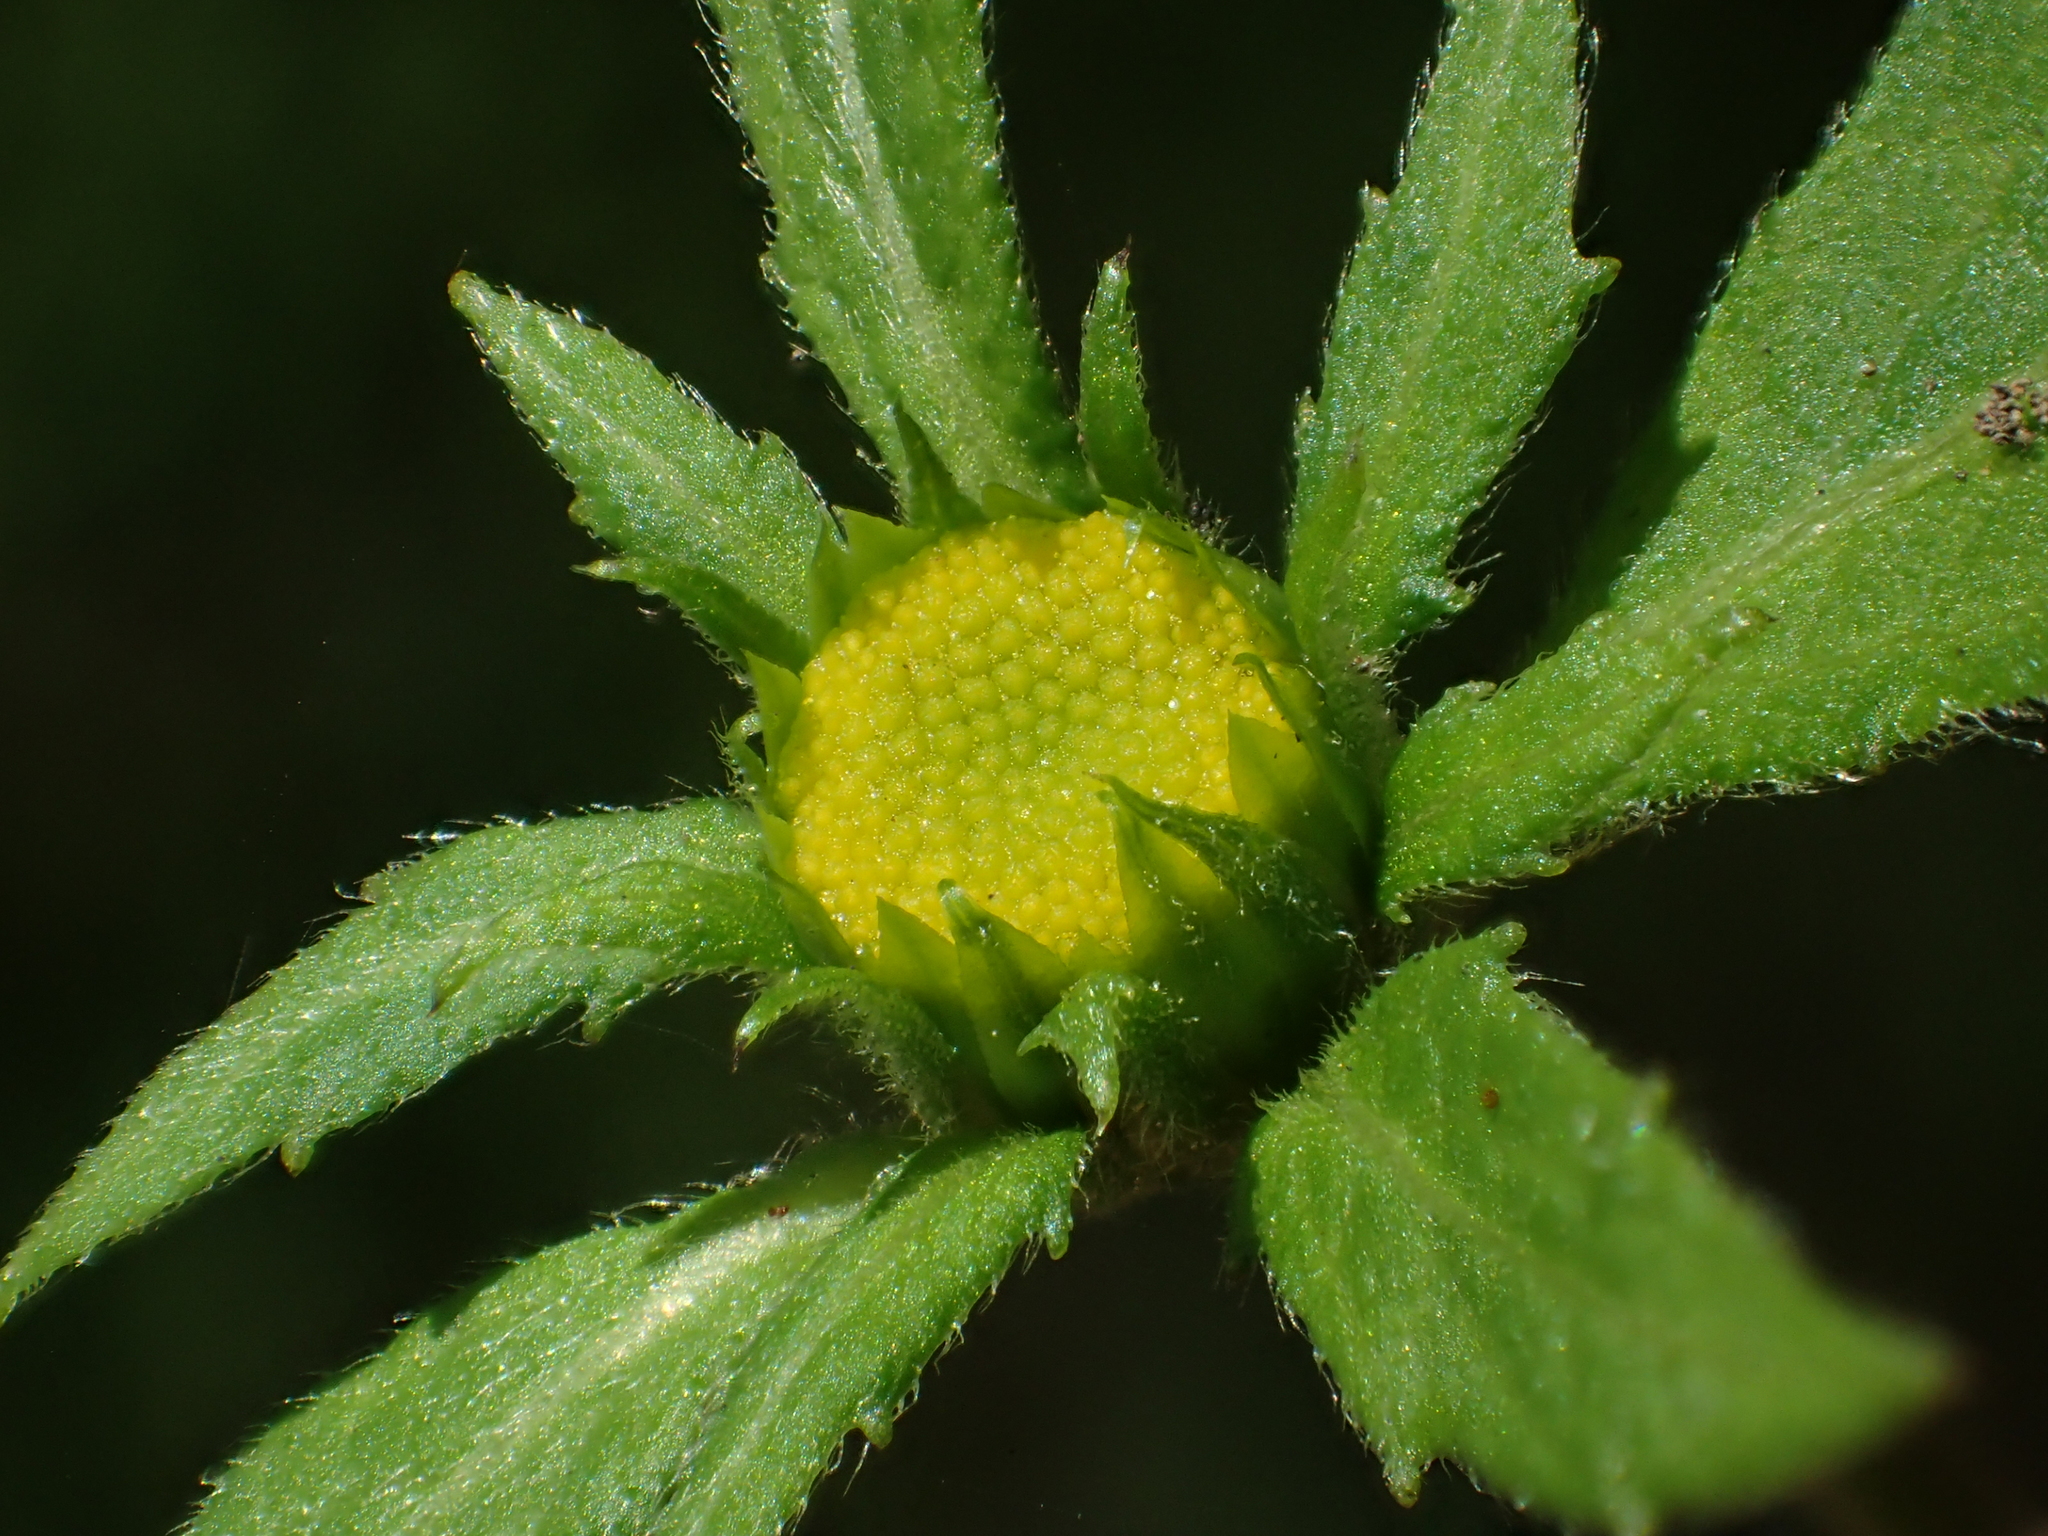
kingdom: Plantae
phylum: Tracheophyta
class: Magnoliopsida
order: Asterales
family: Asteraceae
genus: Carpesium
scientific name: Carpesium nepalense
